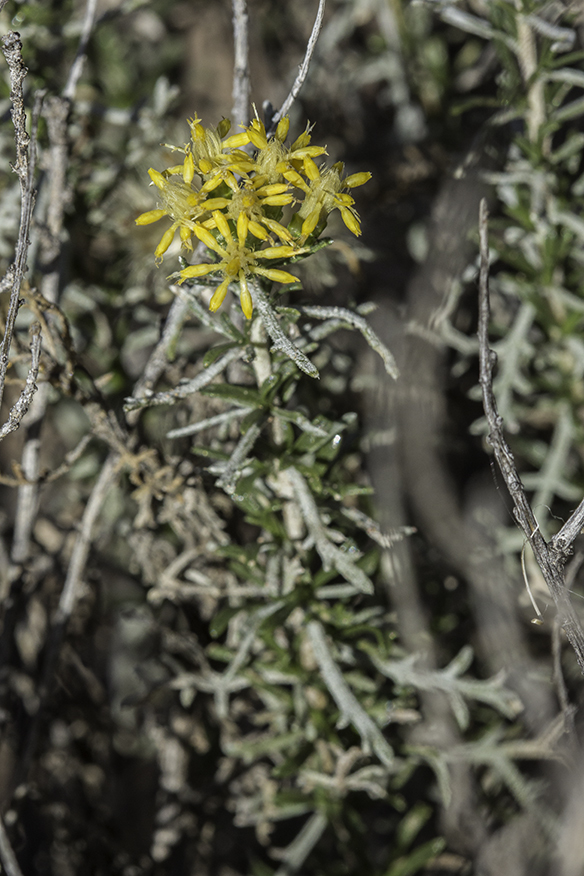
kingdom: Plantae
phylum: Tracheophyta
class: Magnoliopsida
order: Asterales
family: Asteraceae
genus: Isocoma
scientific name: Isocoma tenuisecta
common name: Burroweed
